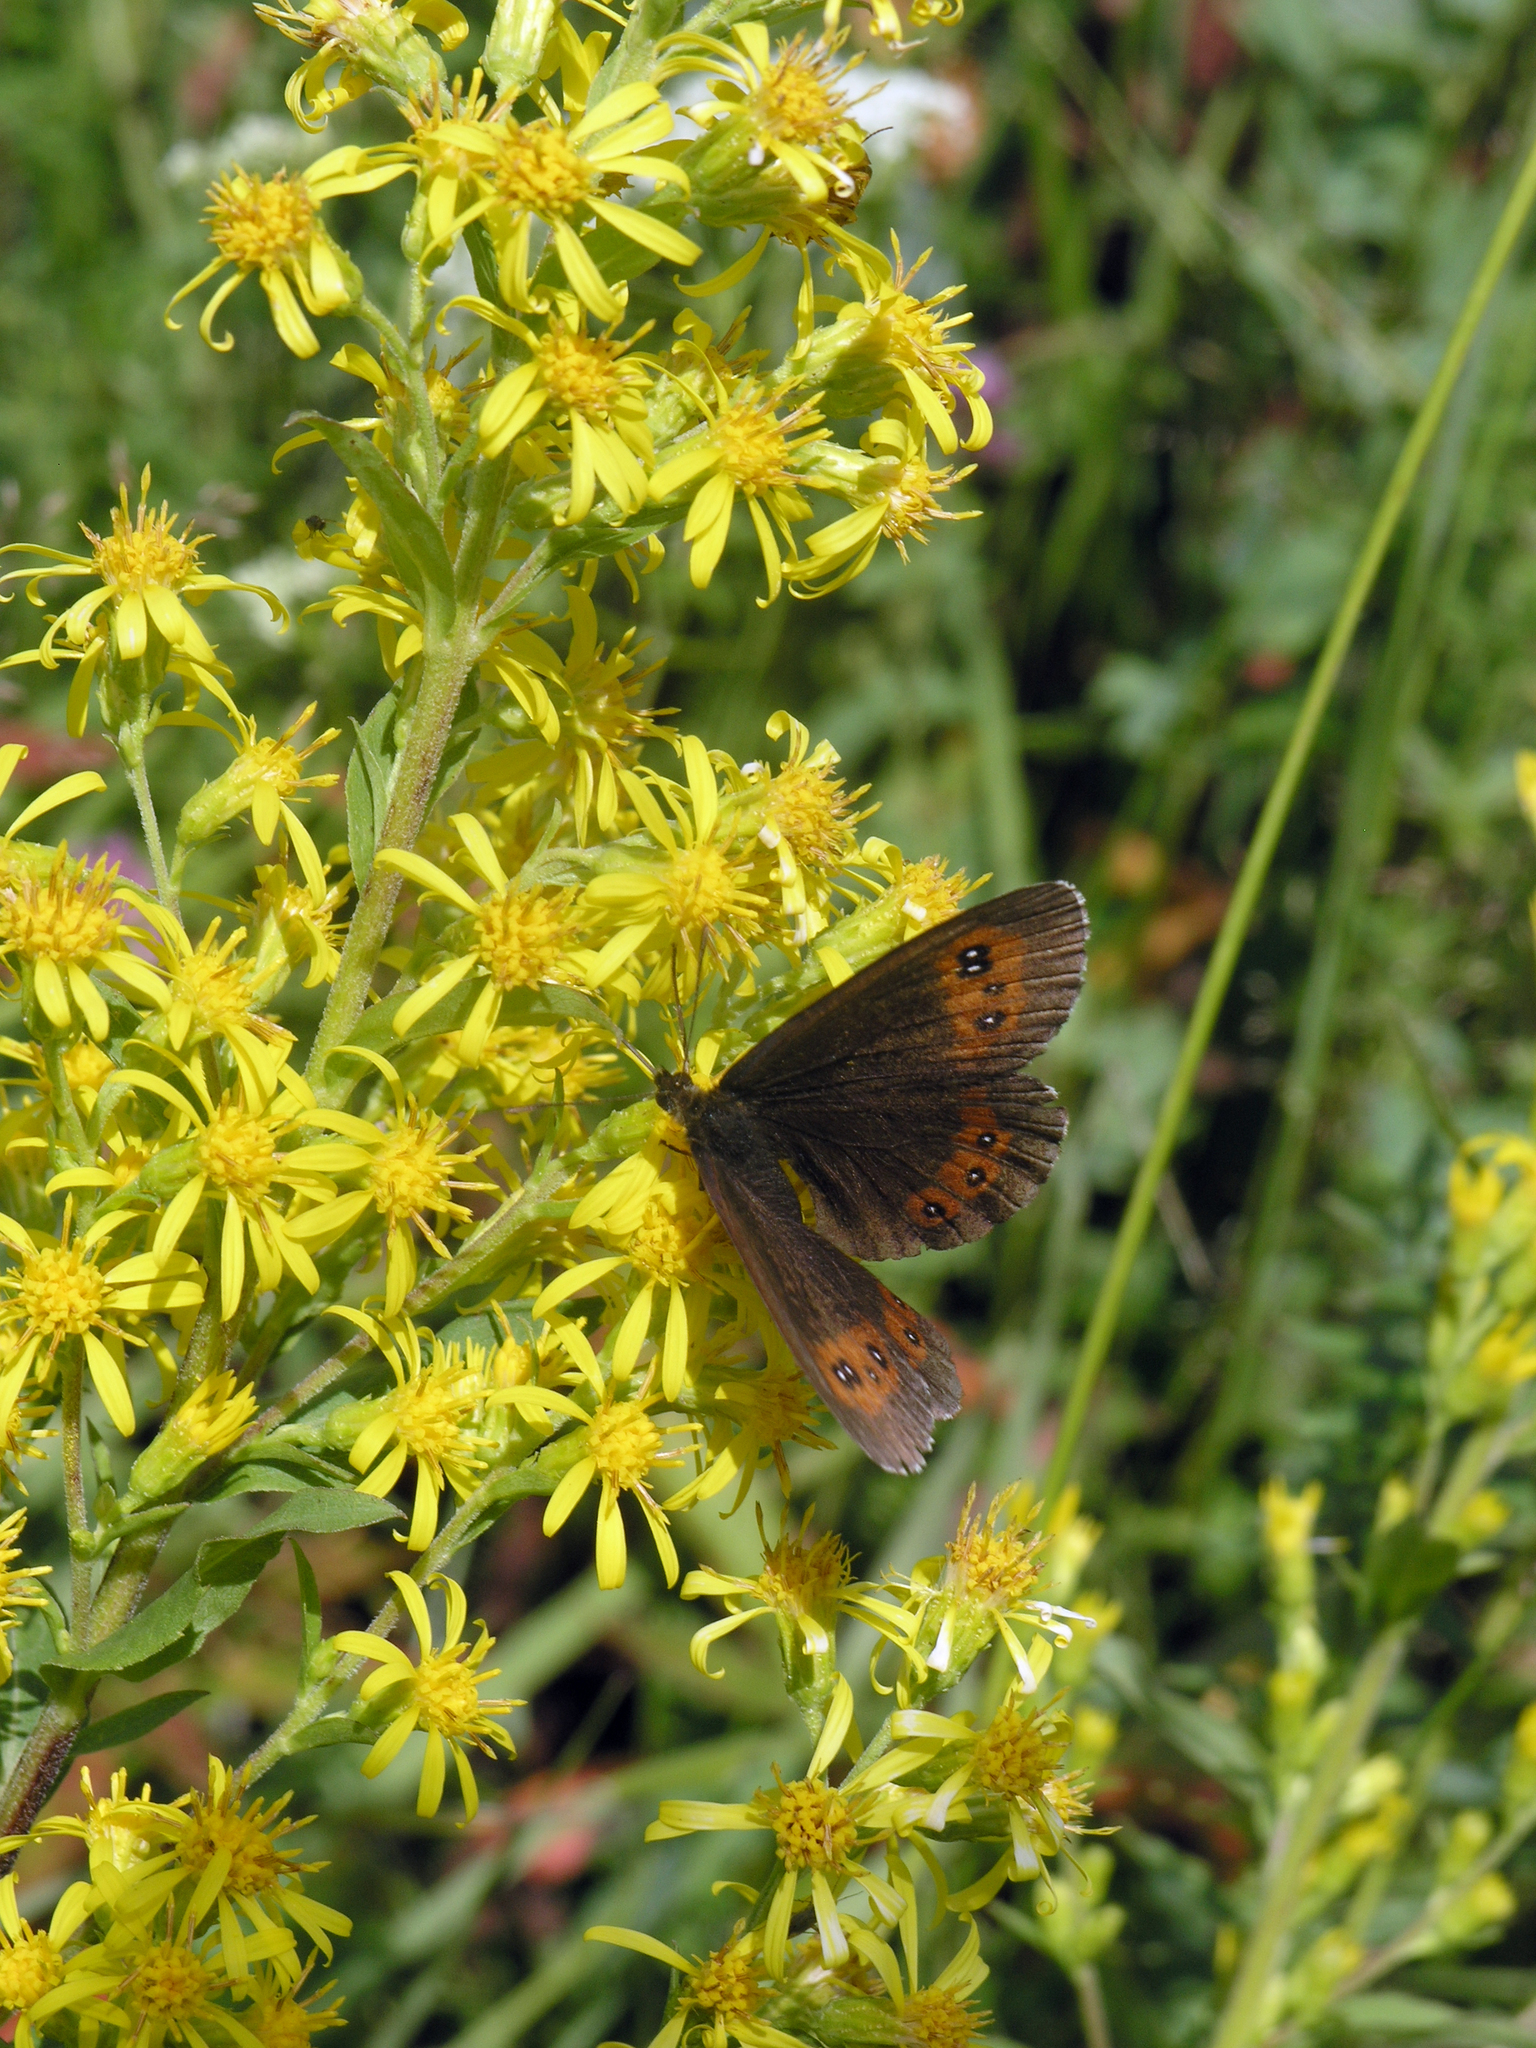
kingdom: Animalia
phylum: Arthropoda
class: Insecta
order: Lepidoptera
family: Nymphalidae
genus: Erebia
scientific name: Erebia ligea
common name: Arran brown
